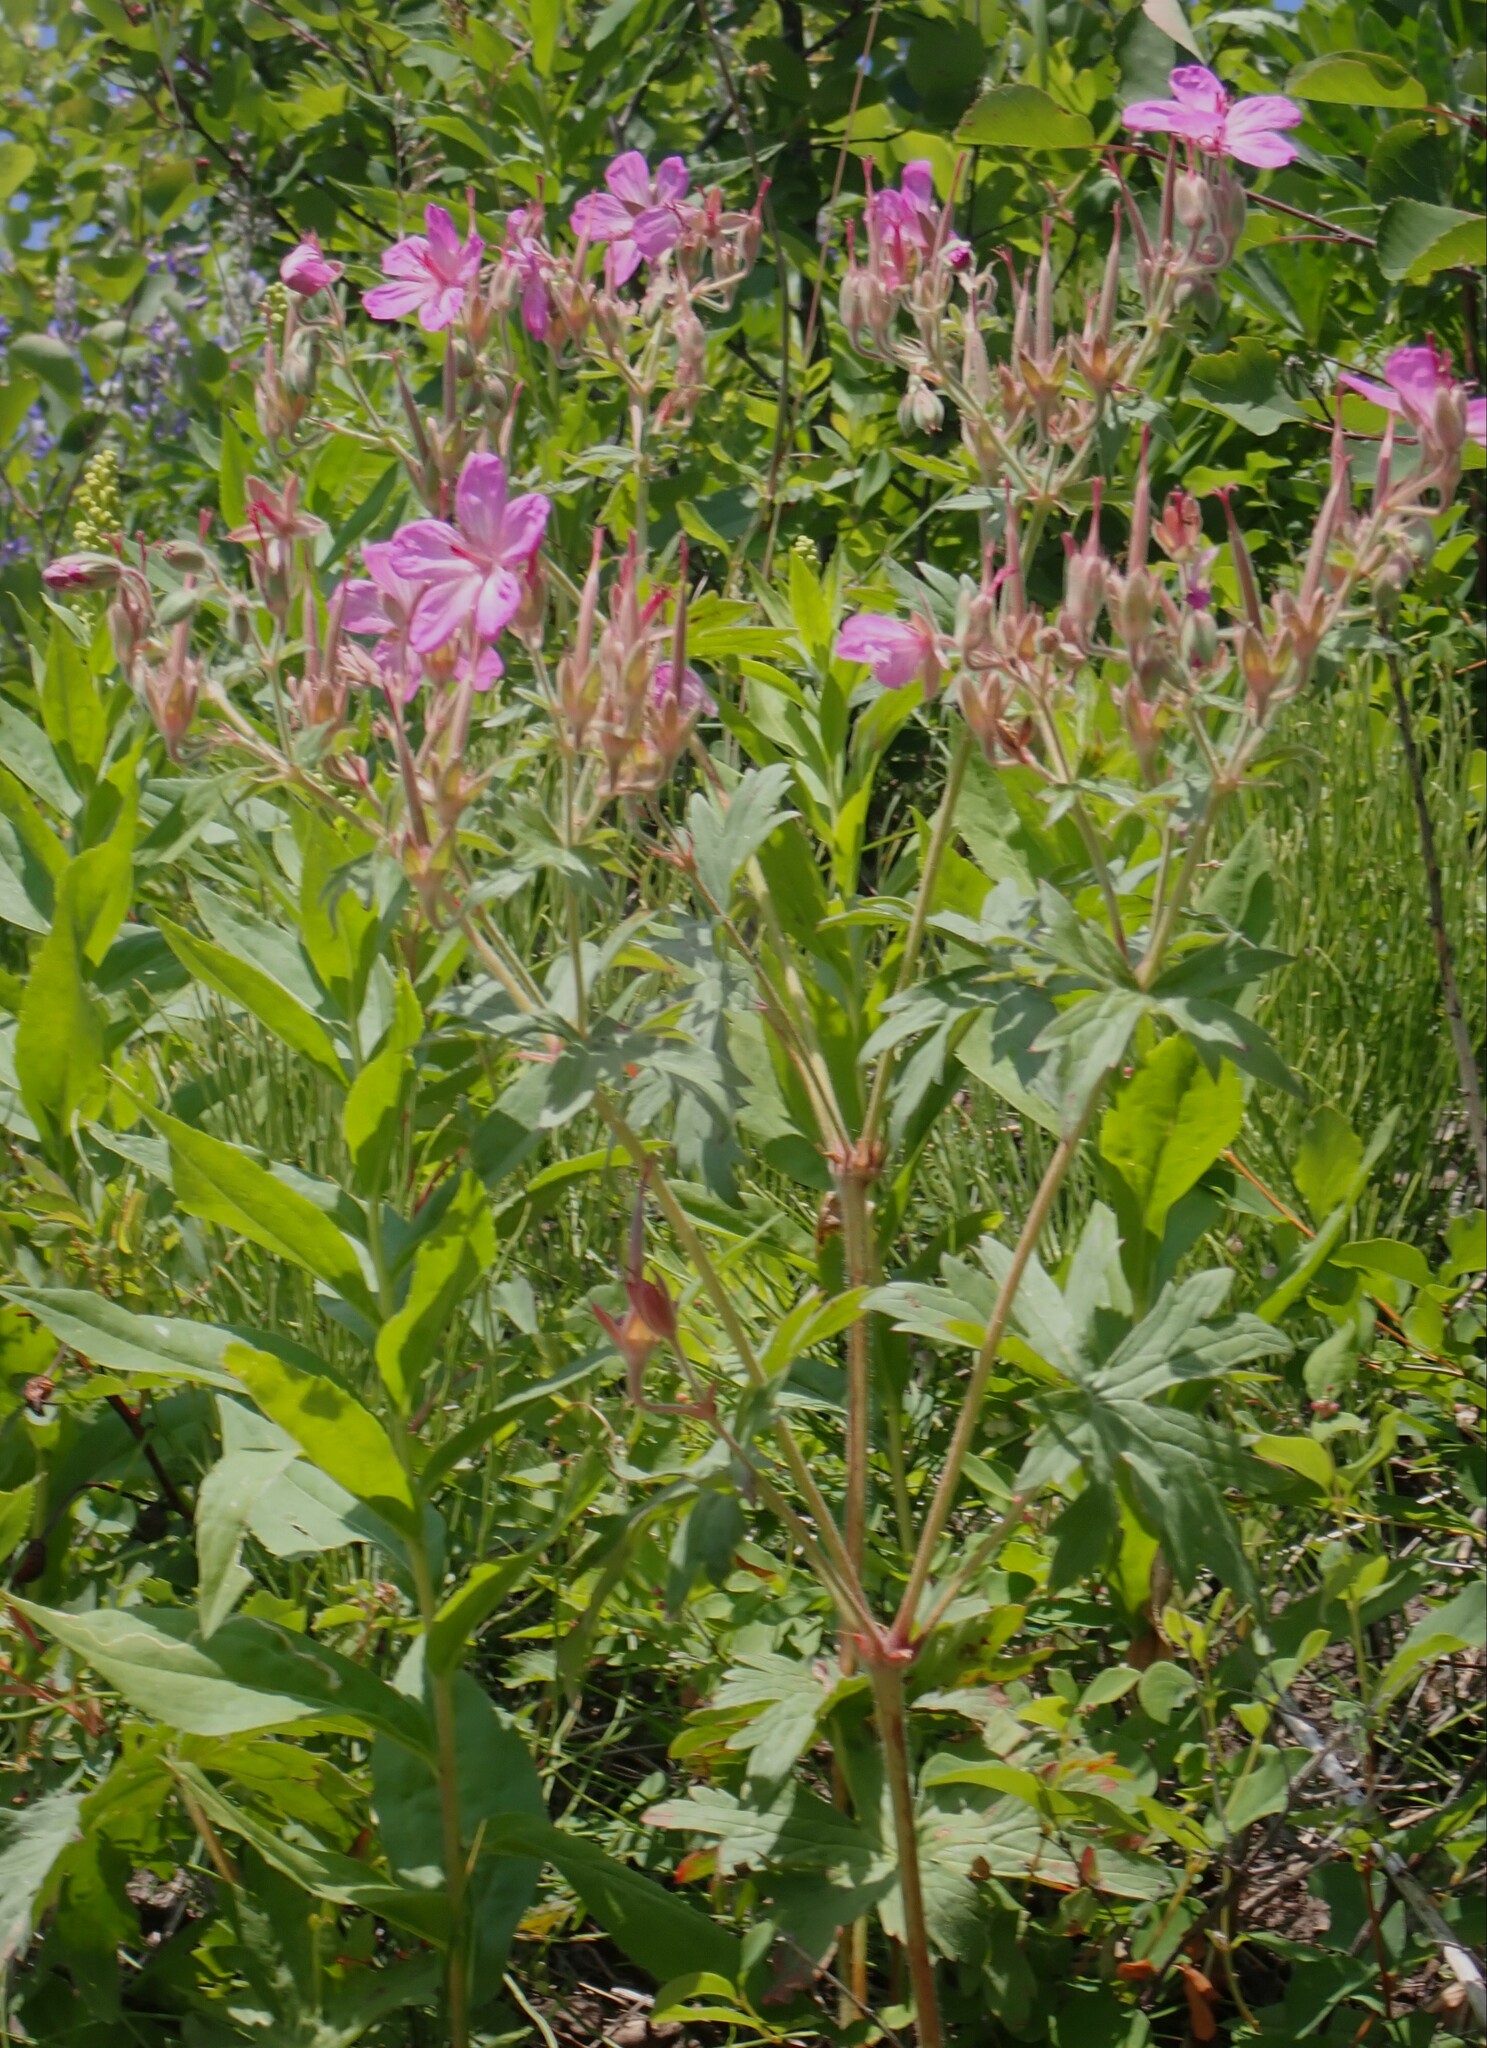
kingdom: Plantae
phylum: Tracheophyta
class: Magnoliopsida
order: Geraniales
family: Geraniaceae
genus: Geranium
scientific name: Geranium viscosissimum
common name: Purple geranium
